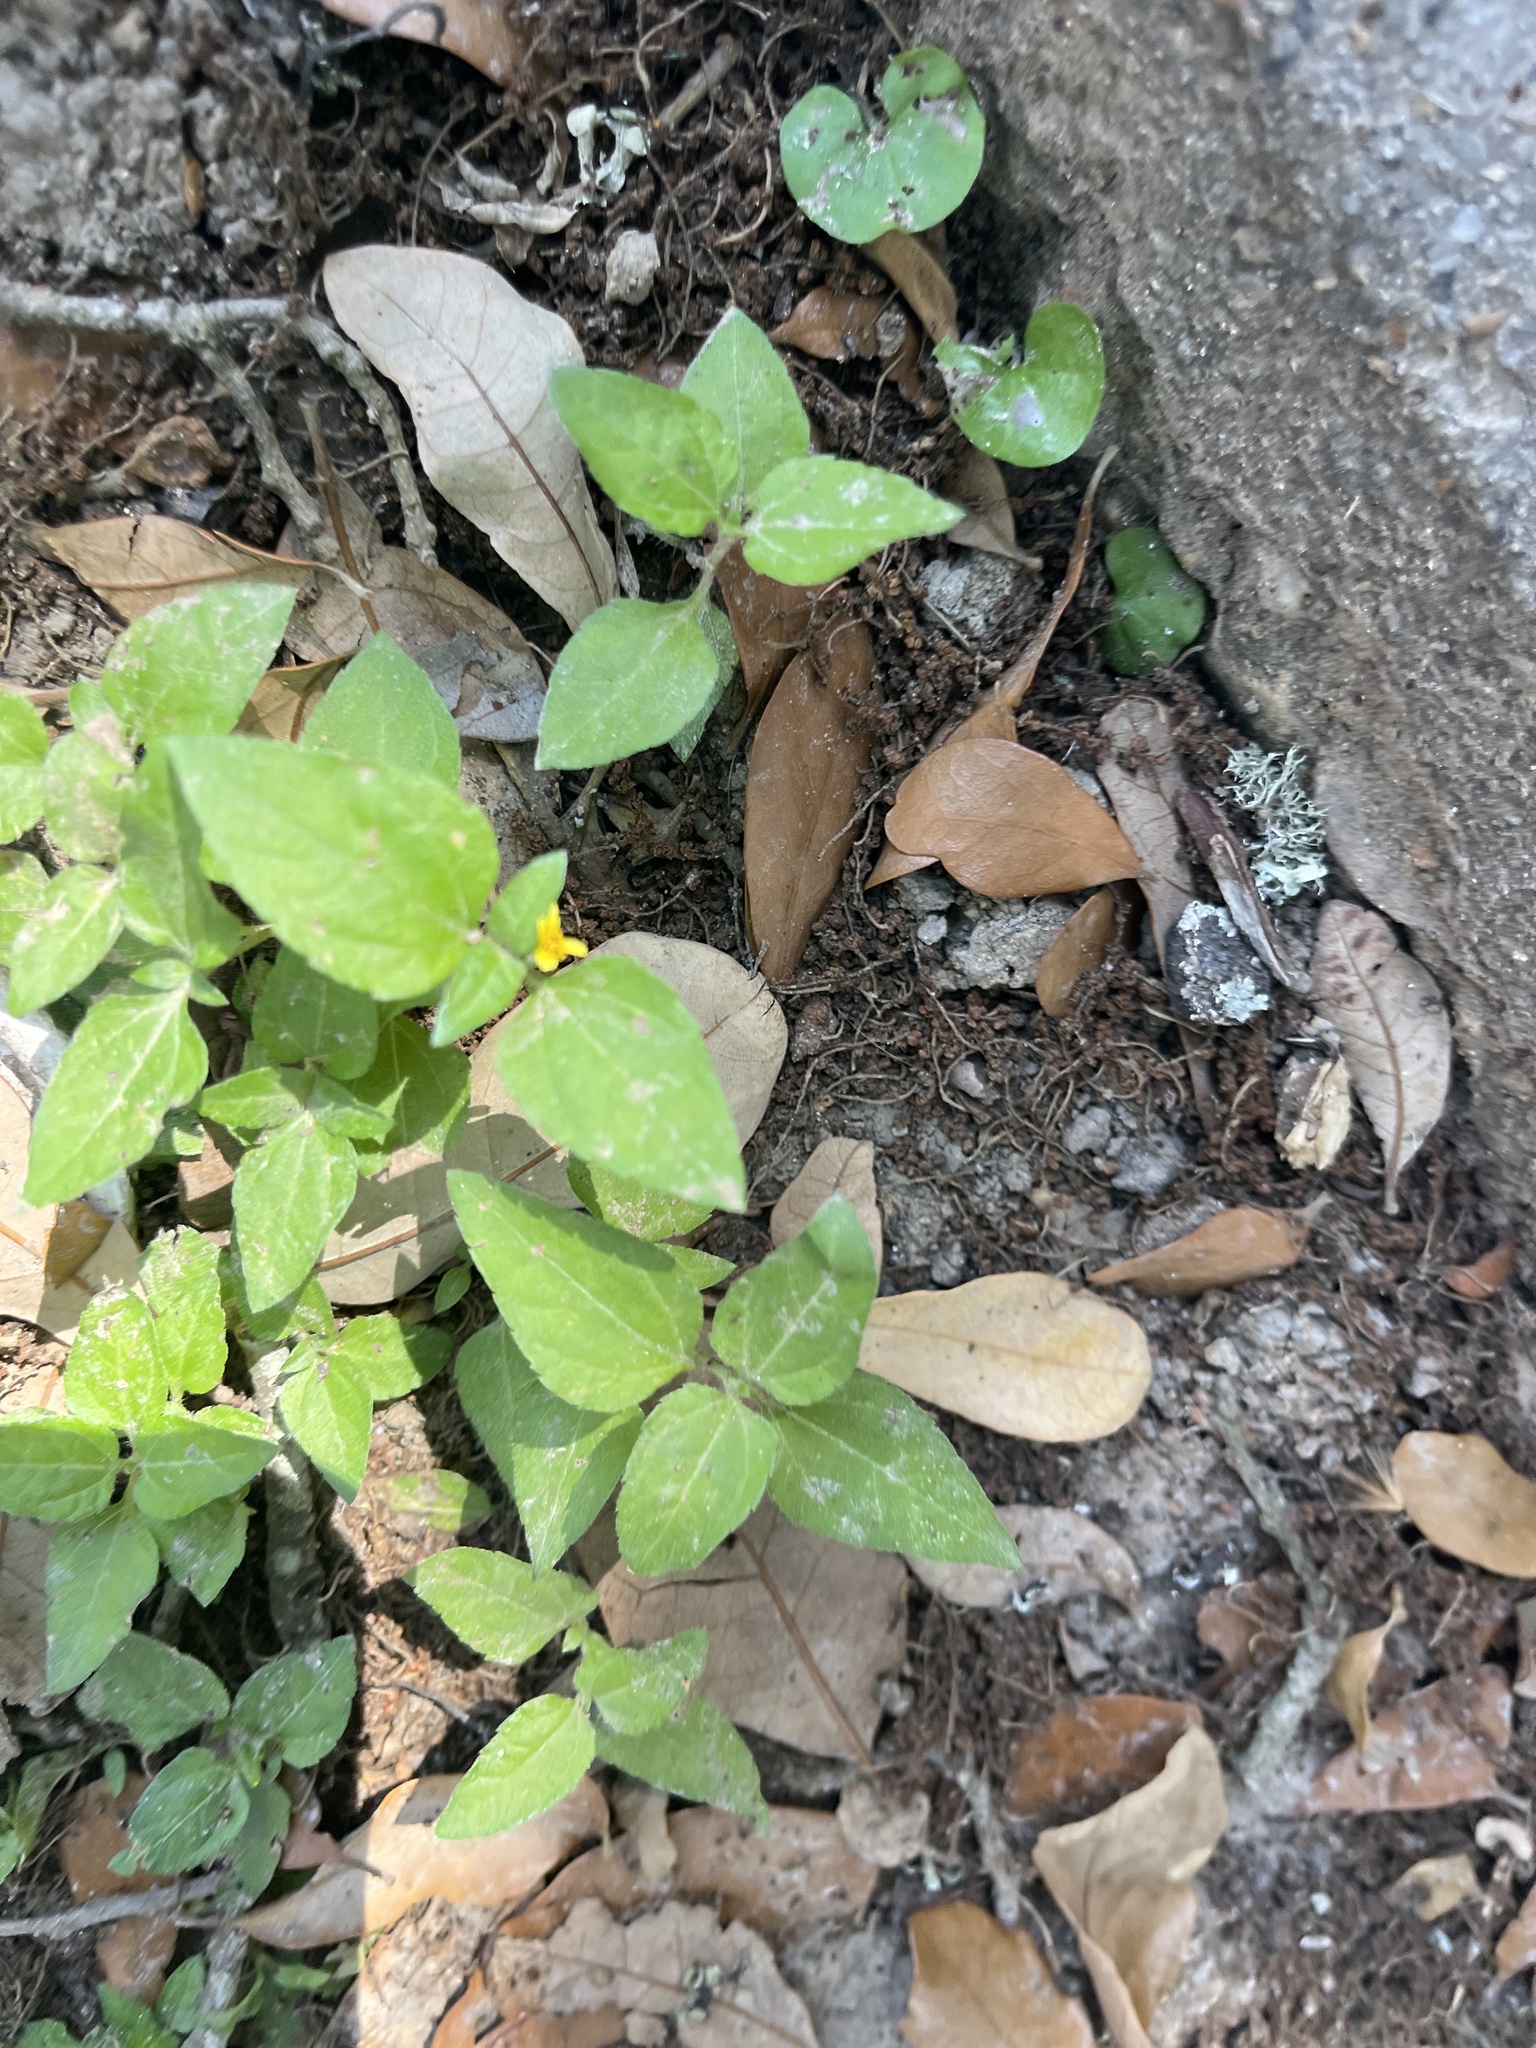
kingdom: Plantae
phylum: Tracheophyta
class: Magnoliopsida
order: Asterales
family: Asteraceae
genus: Calyptocarpus
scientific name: Calyptocarpus vialis
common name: Straggler daisy
